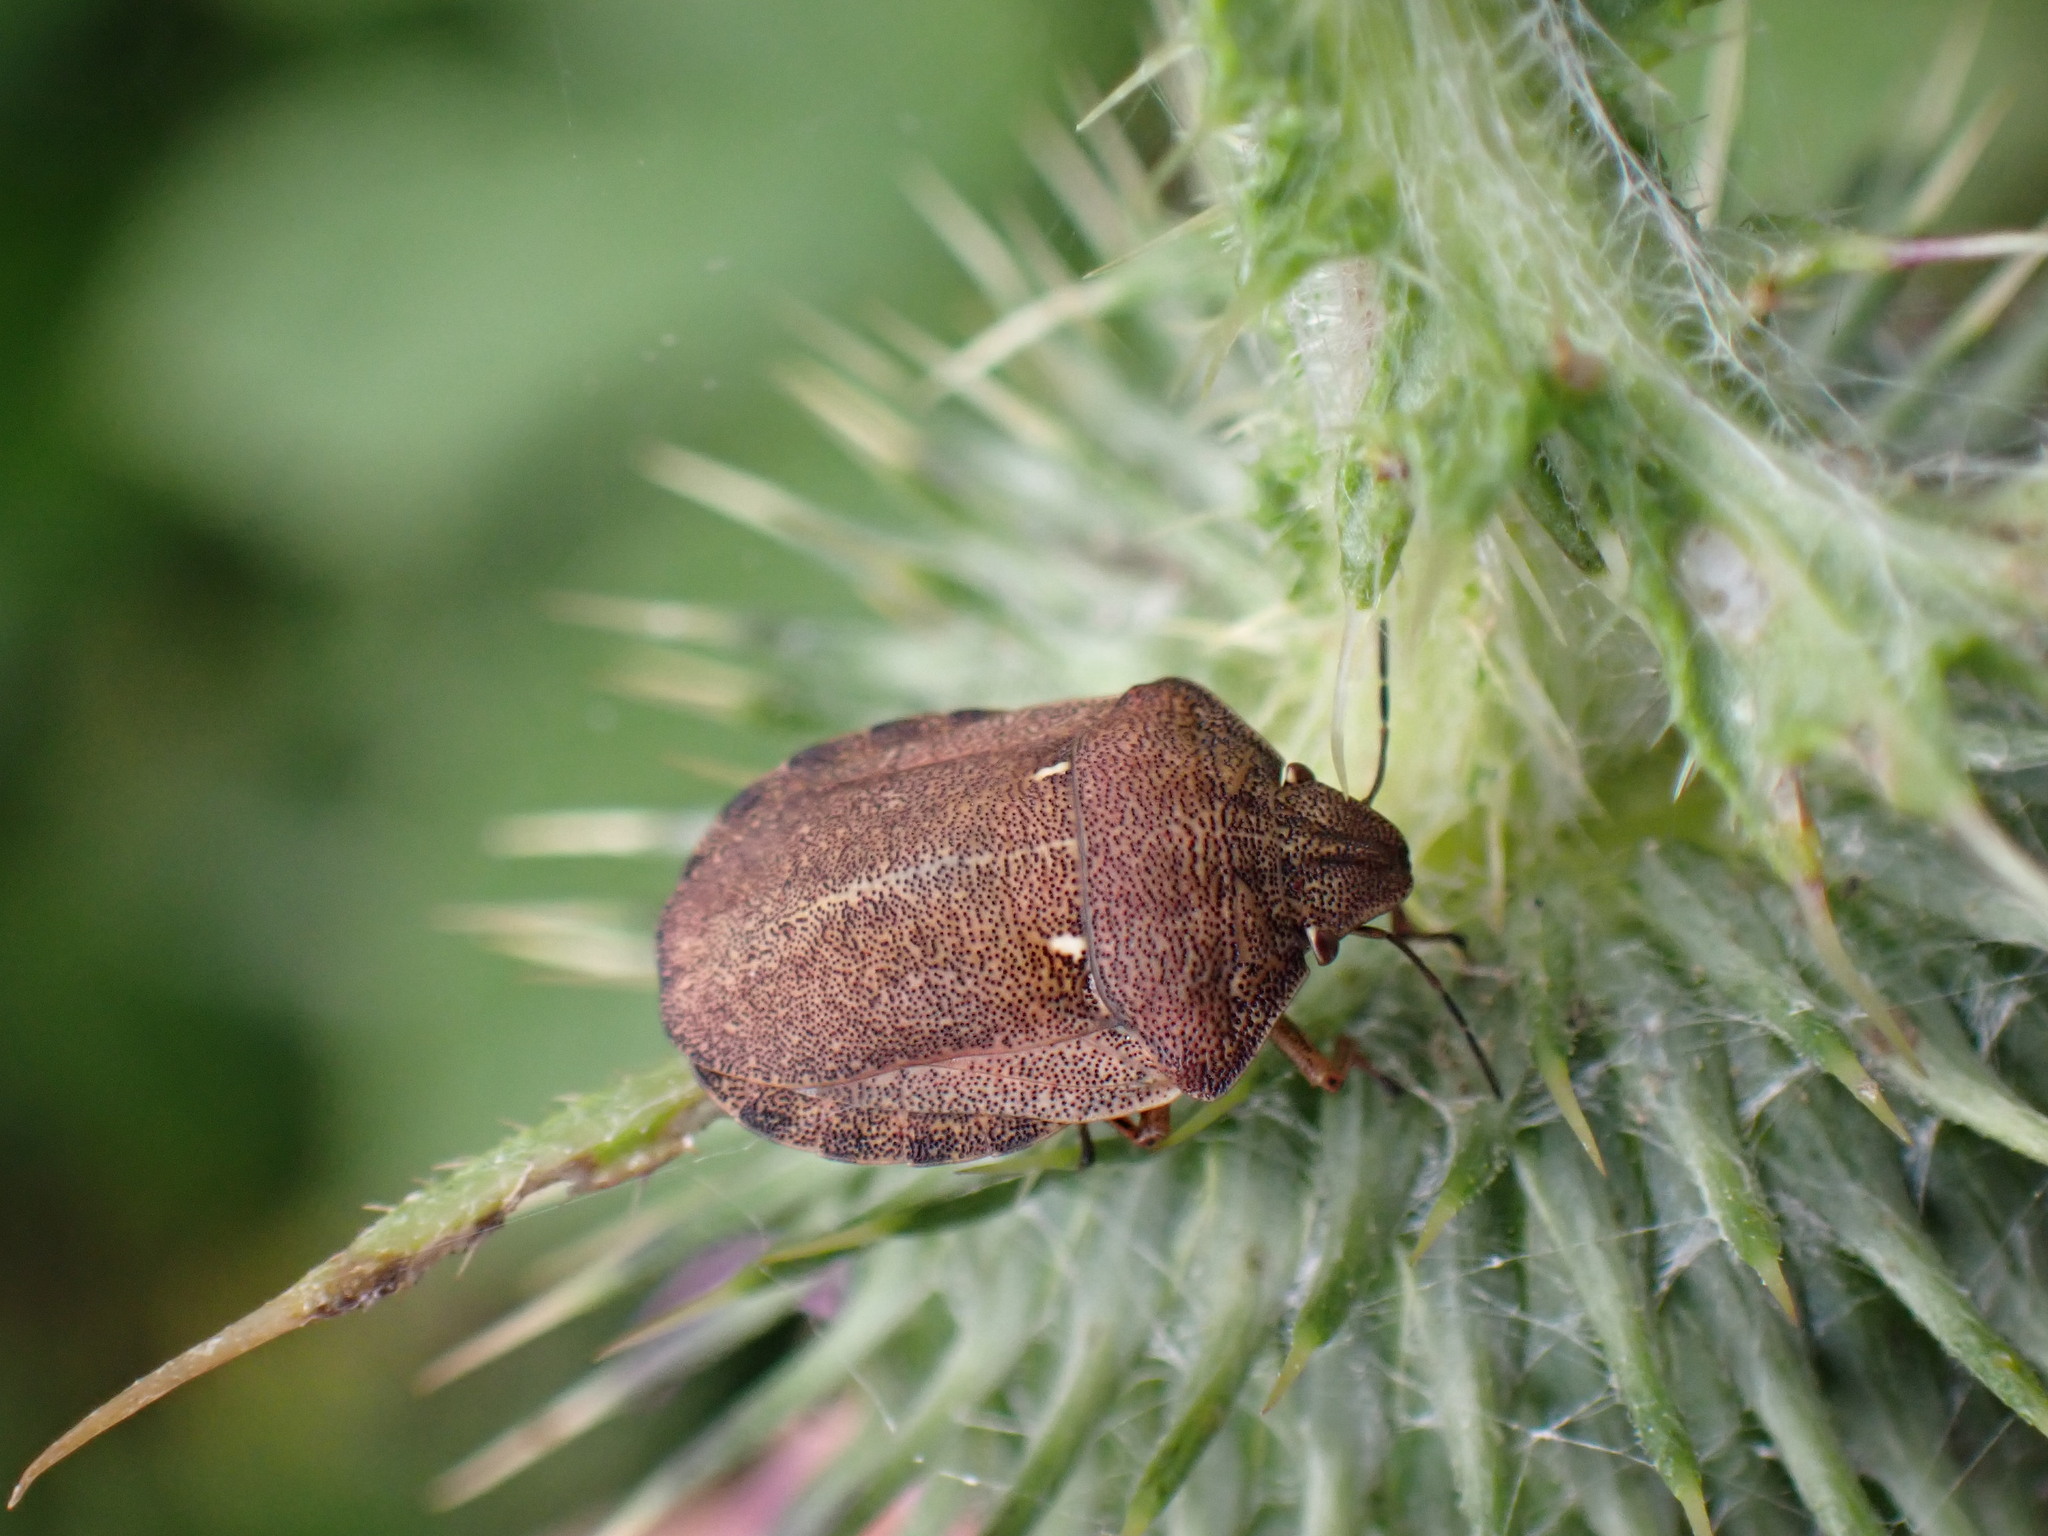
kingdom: Animalia
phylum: Arthropoda
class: Insecta
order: Hemiptera
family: Scutelleridae
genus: Eurygaster
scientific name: Eurygaster testudinaria
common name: Tortoise bug
